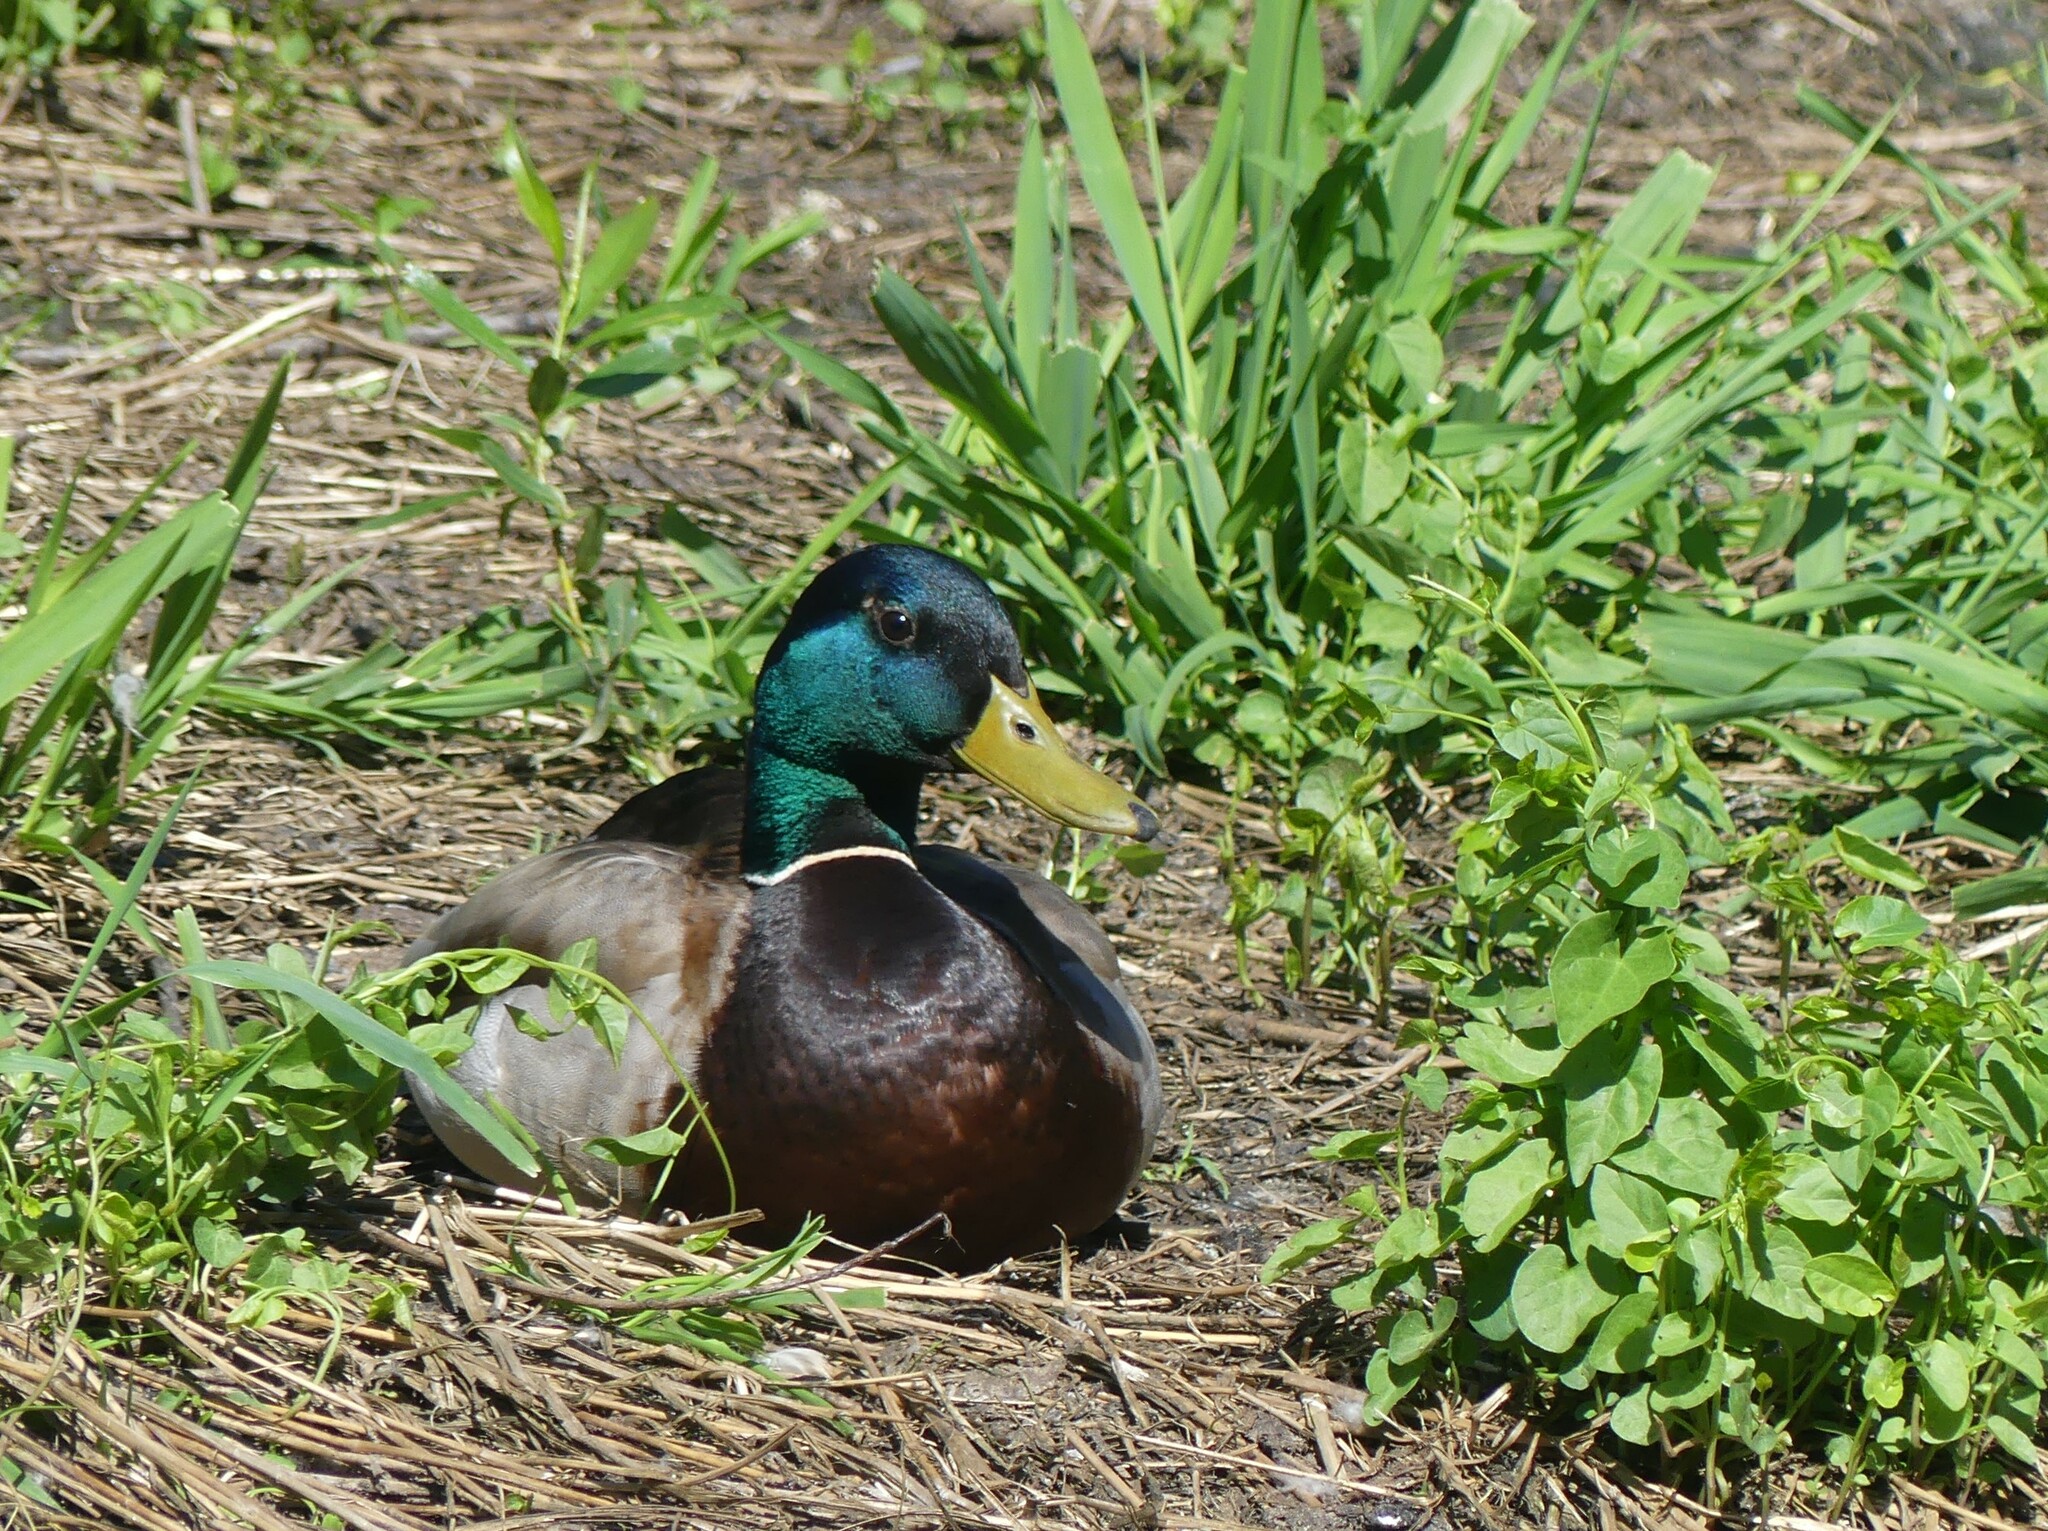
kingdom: Animalia
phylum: Chordata
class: Aves
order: Anseriformes
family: Anatidae
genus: Anas
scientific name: Anas platyrhynchos
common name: Mallard
